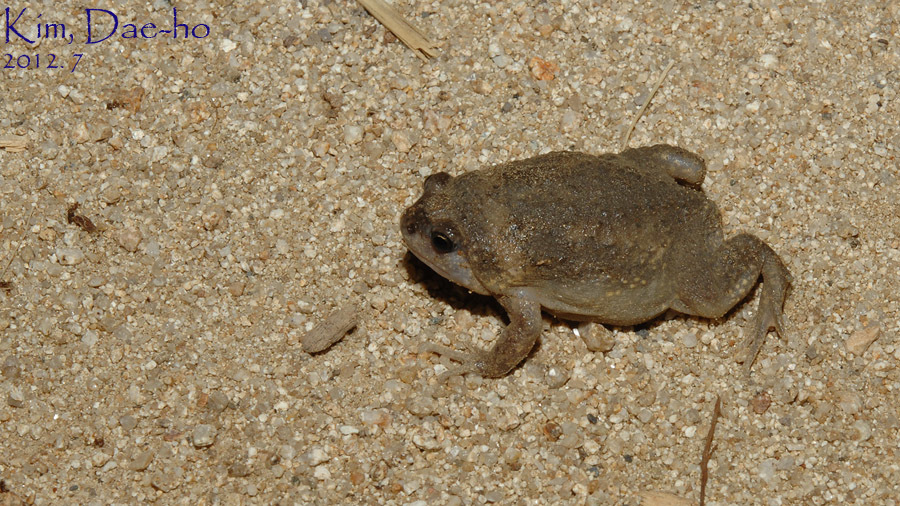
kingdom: Animalia
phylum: Chordata
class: Amphibia
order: Anura
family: Microhylidae
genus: Kaloula
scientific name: Kaloula borealis
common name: Boreal digging frog
